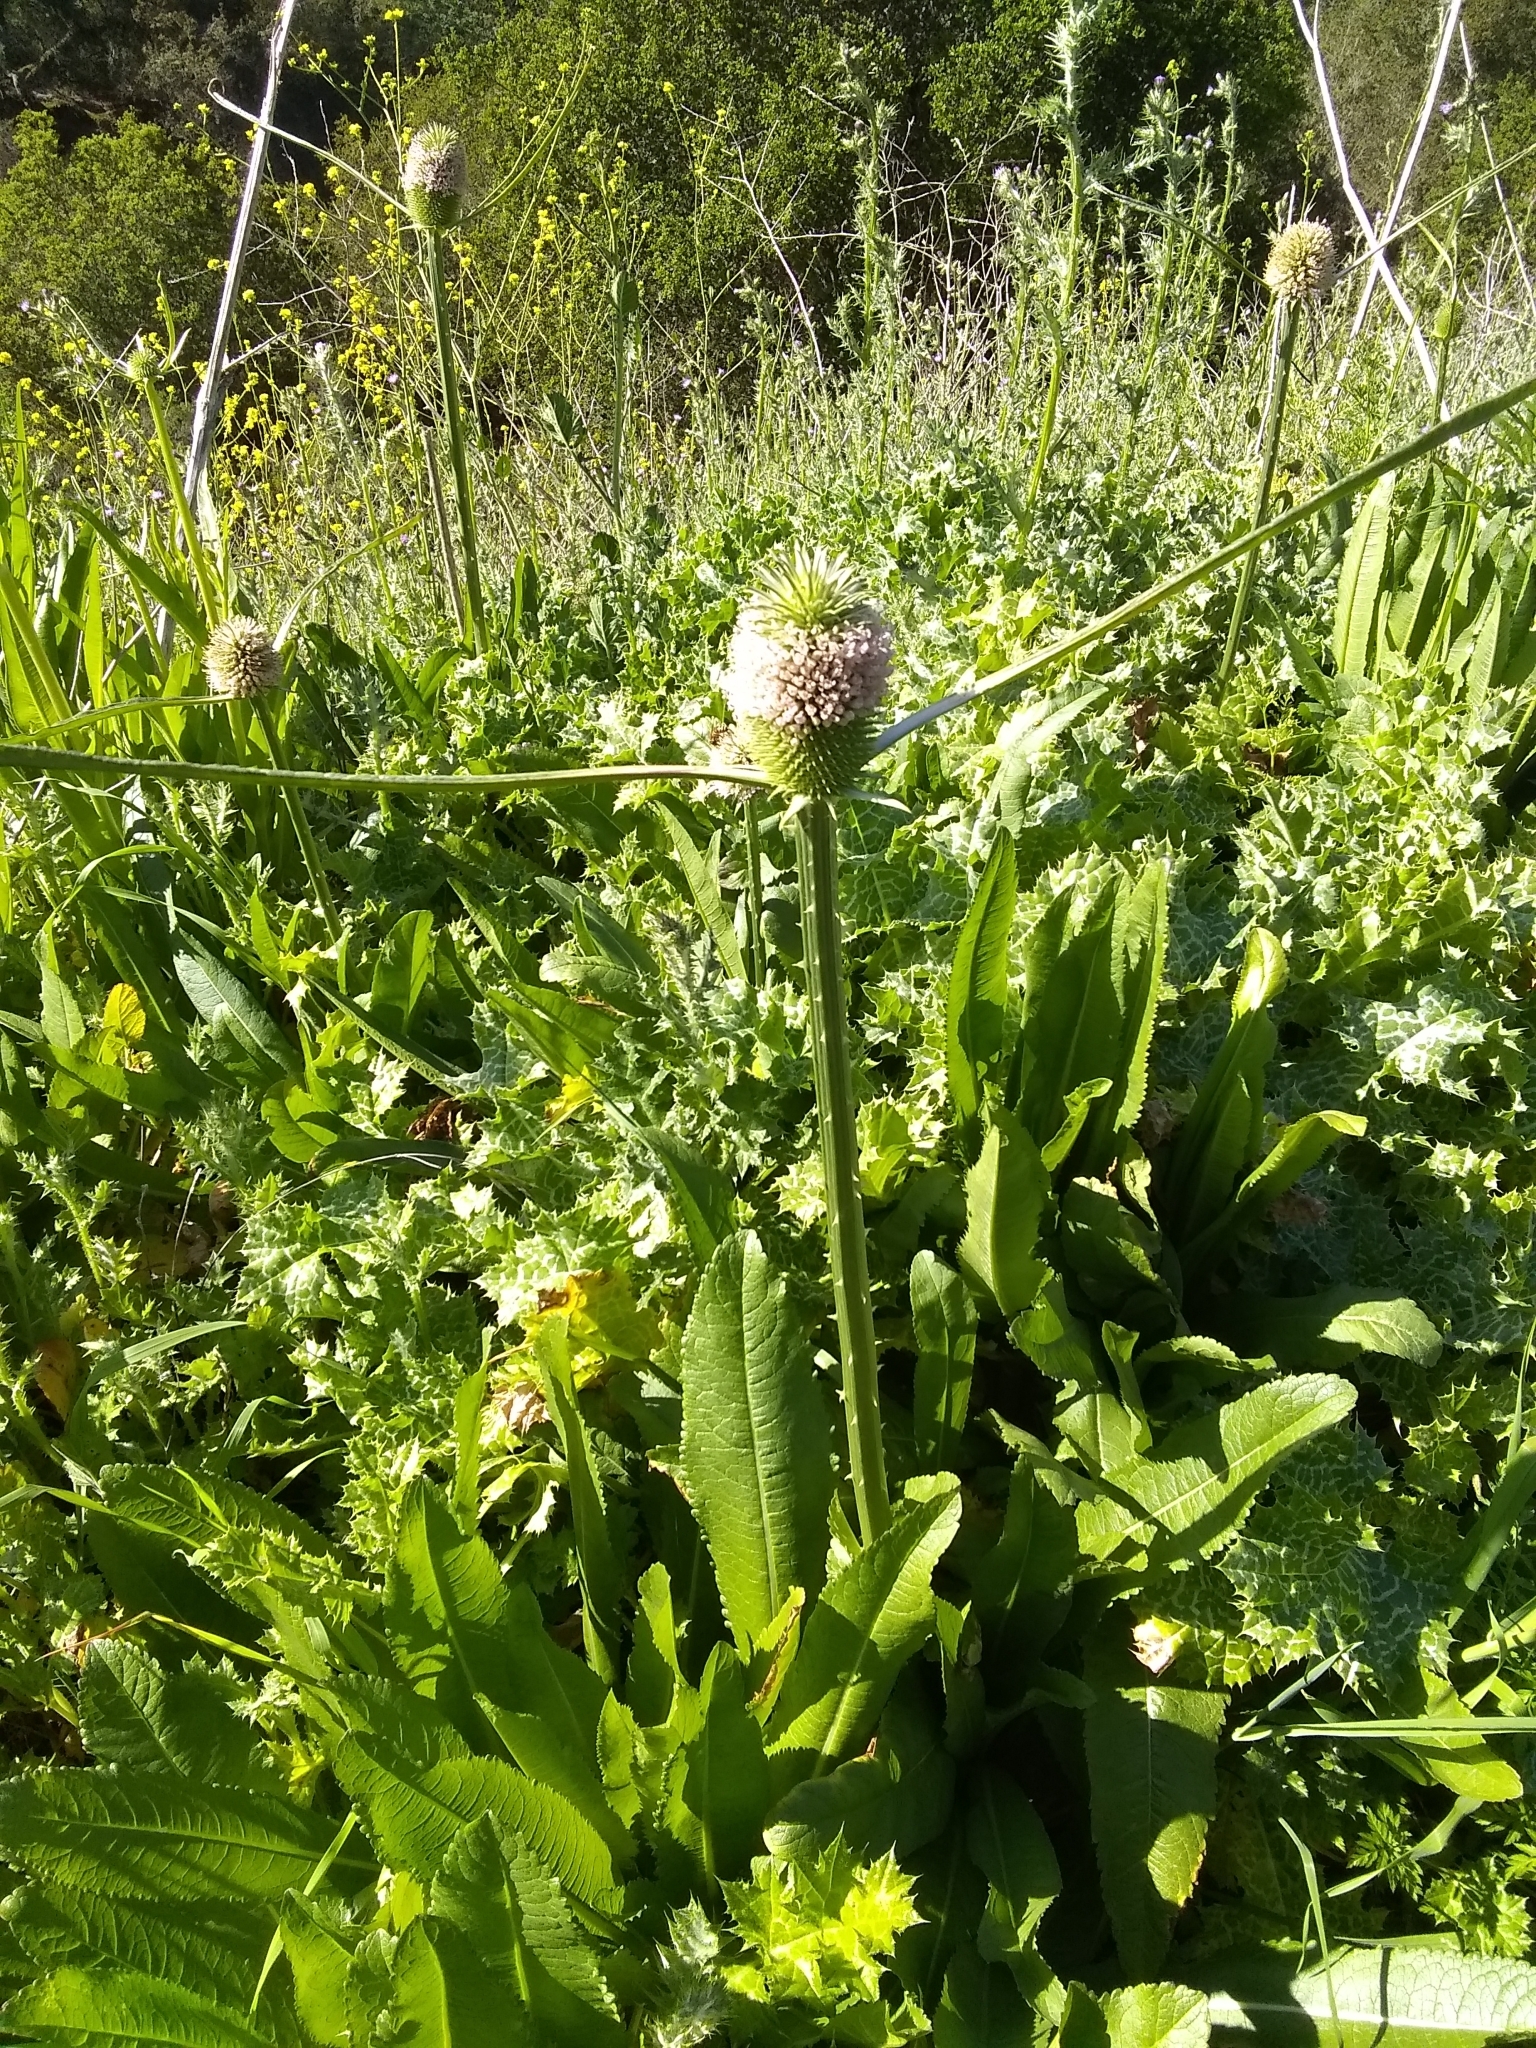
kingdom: Plantae
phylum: Tracheophyta
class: Magnoliopsida
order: Dipsacales
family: Caprifoliaceae
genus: Dipsacus
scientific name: Dipsacus sativus
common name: Fuller's teasel
